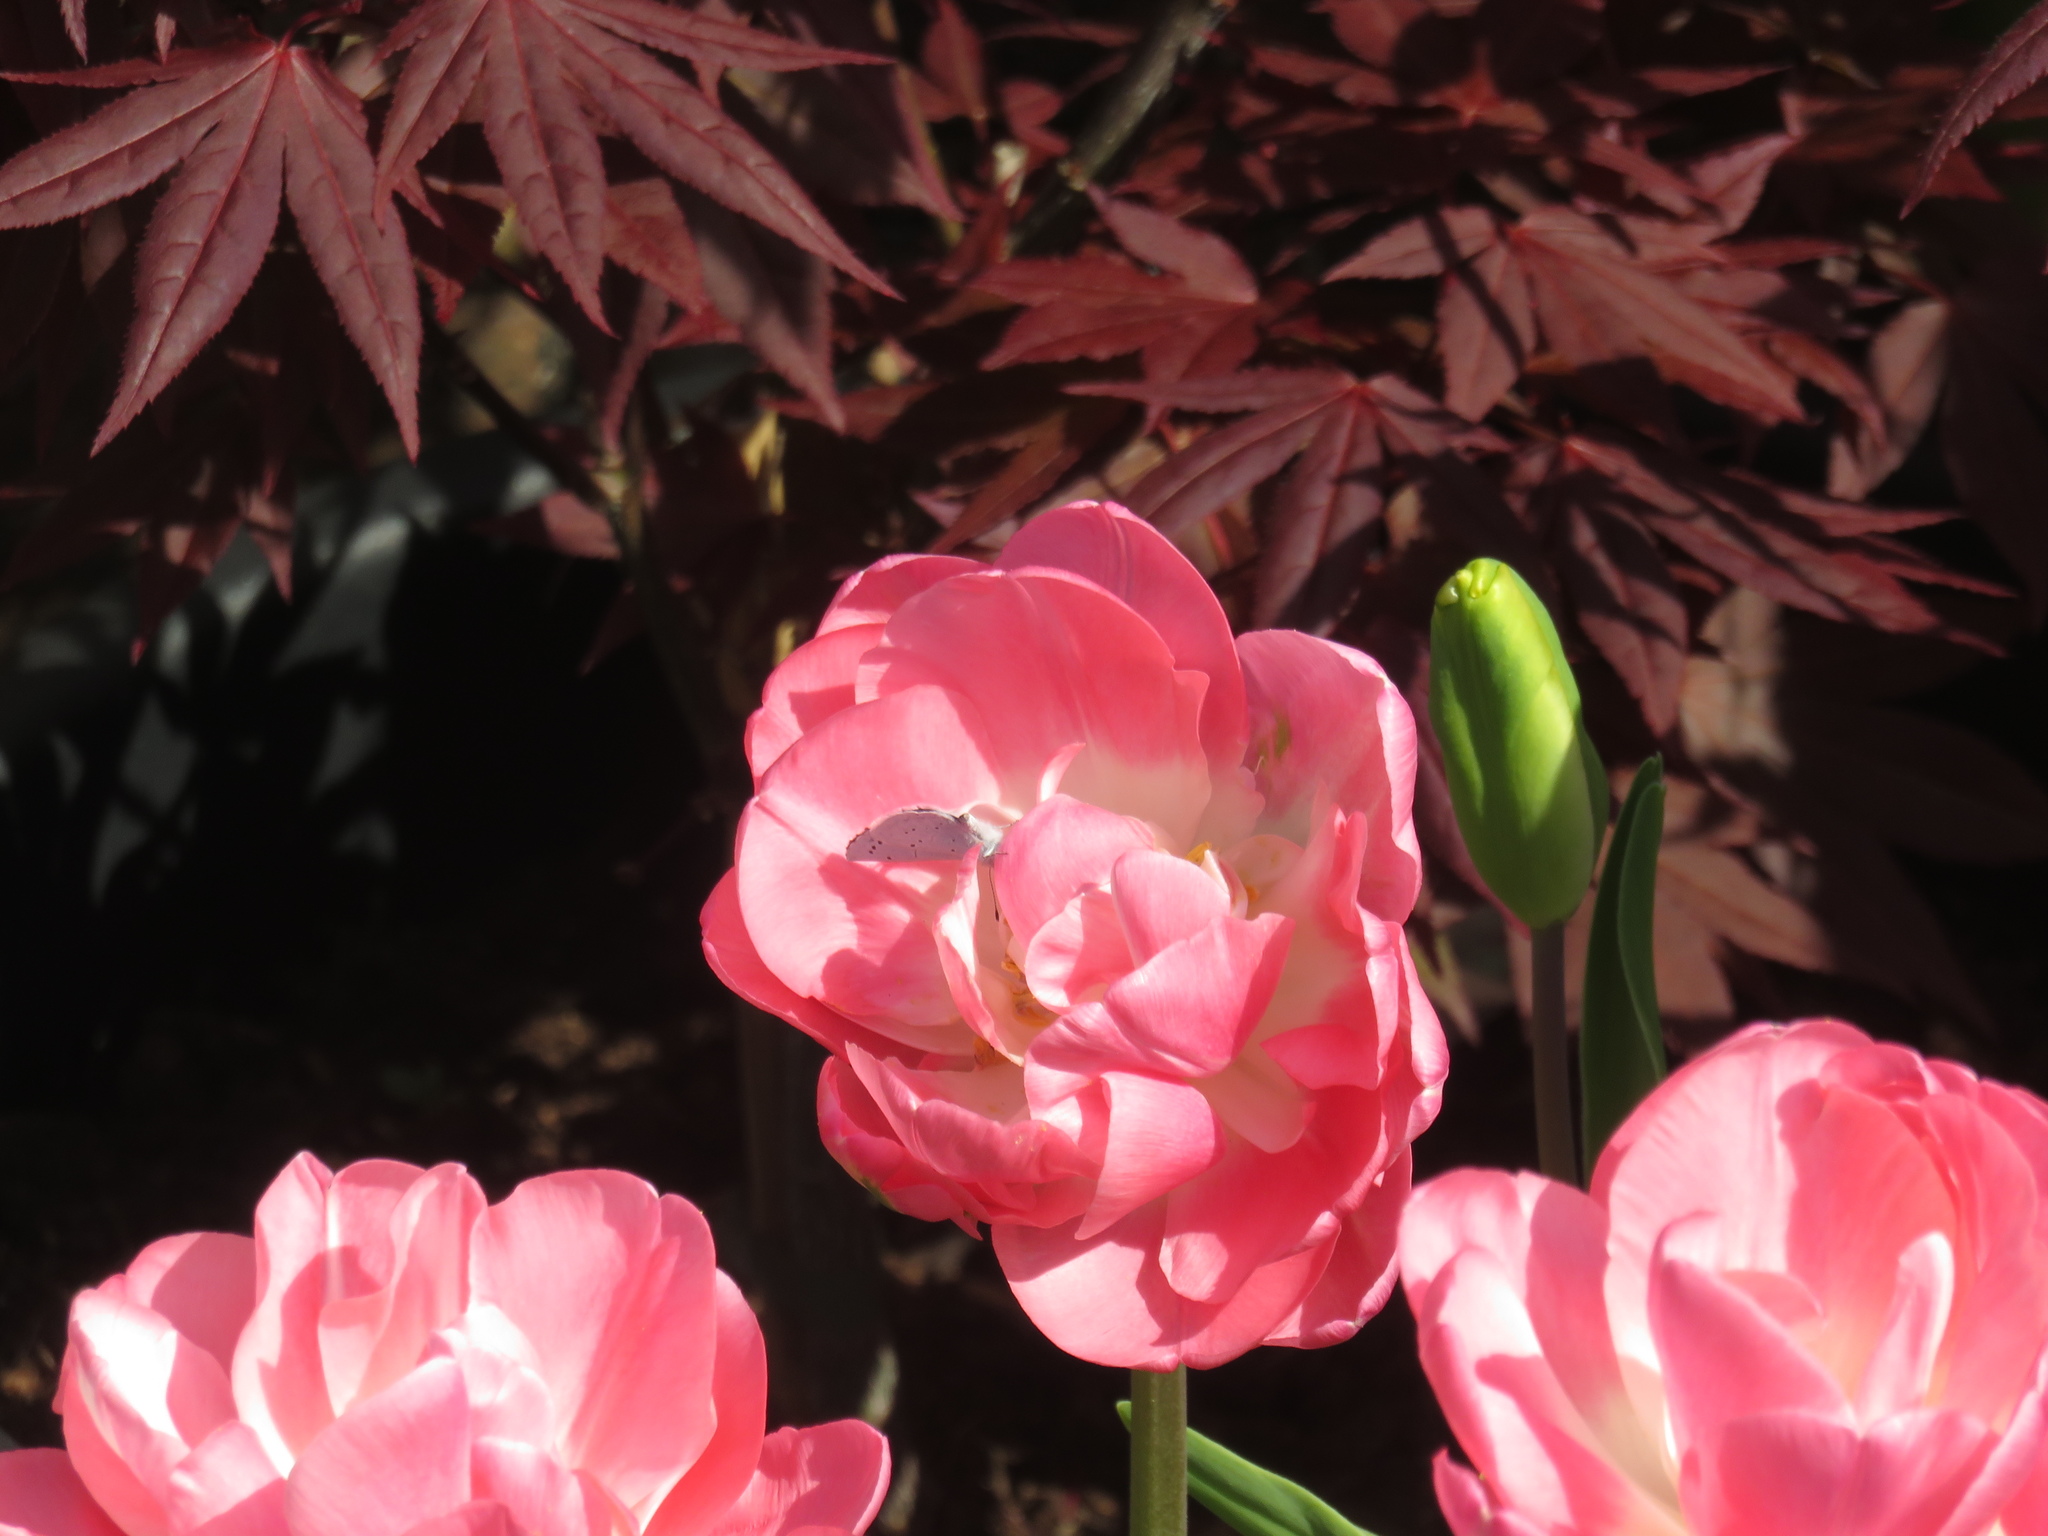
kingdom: Animalia
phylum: Arthropoda
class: Insecta
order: Lepidoptera
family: Lycaenidae
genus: Celastrina
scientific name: Celastrina argiolus
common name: Holly blue
